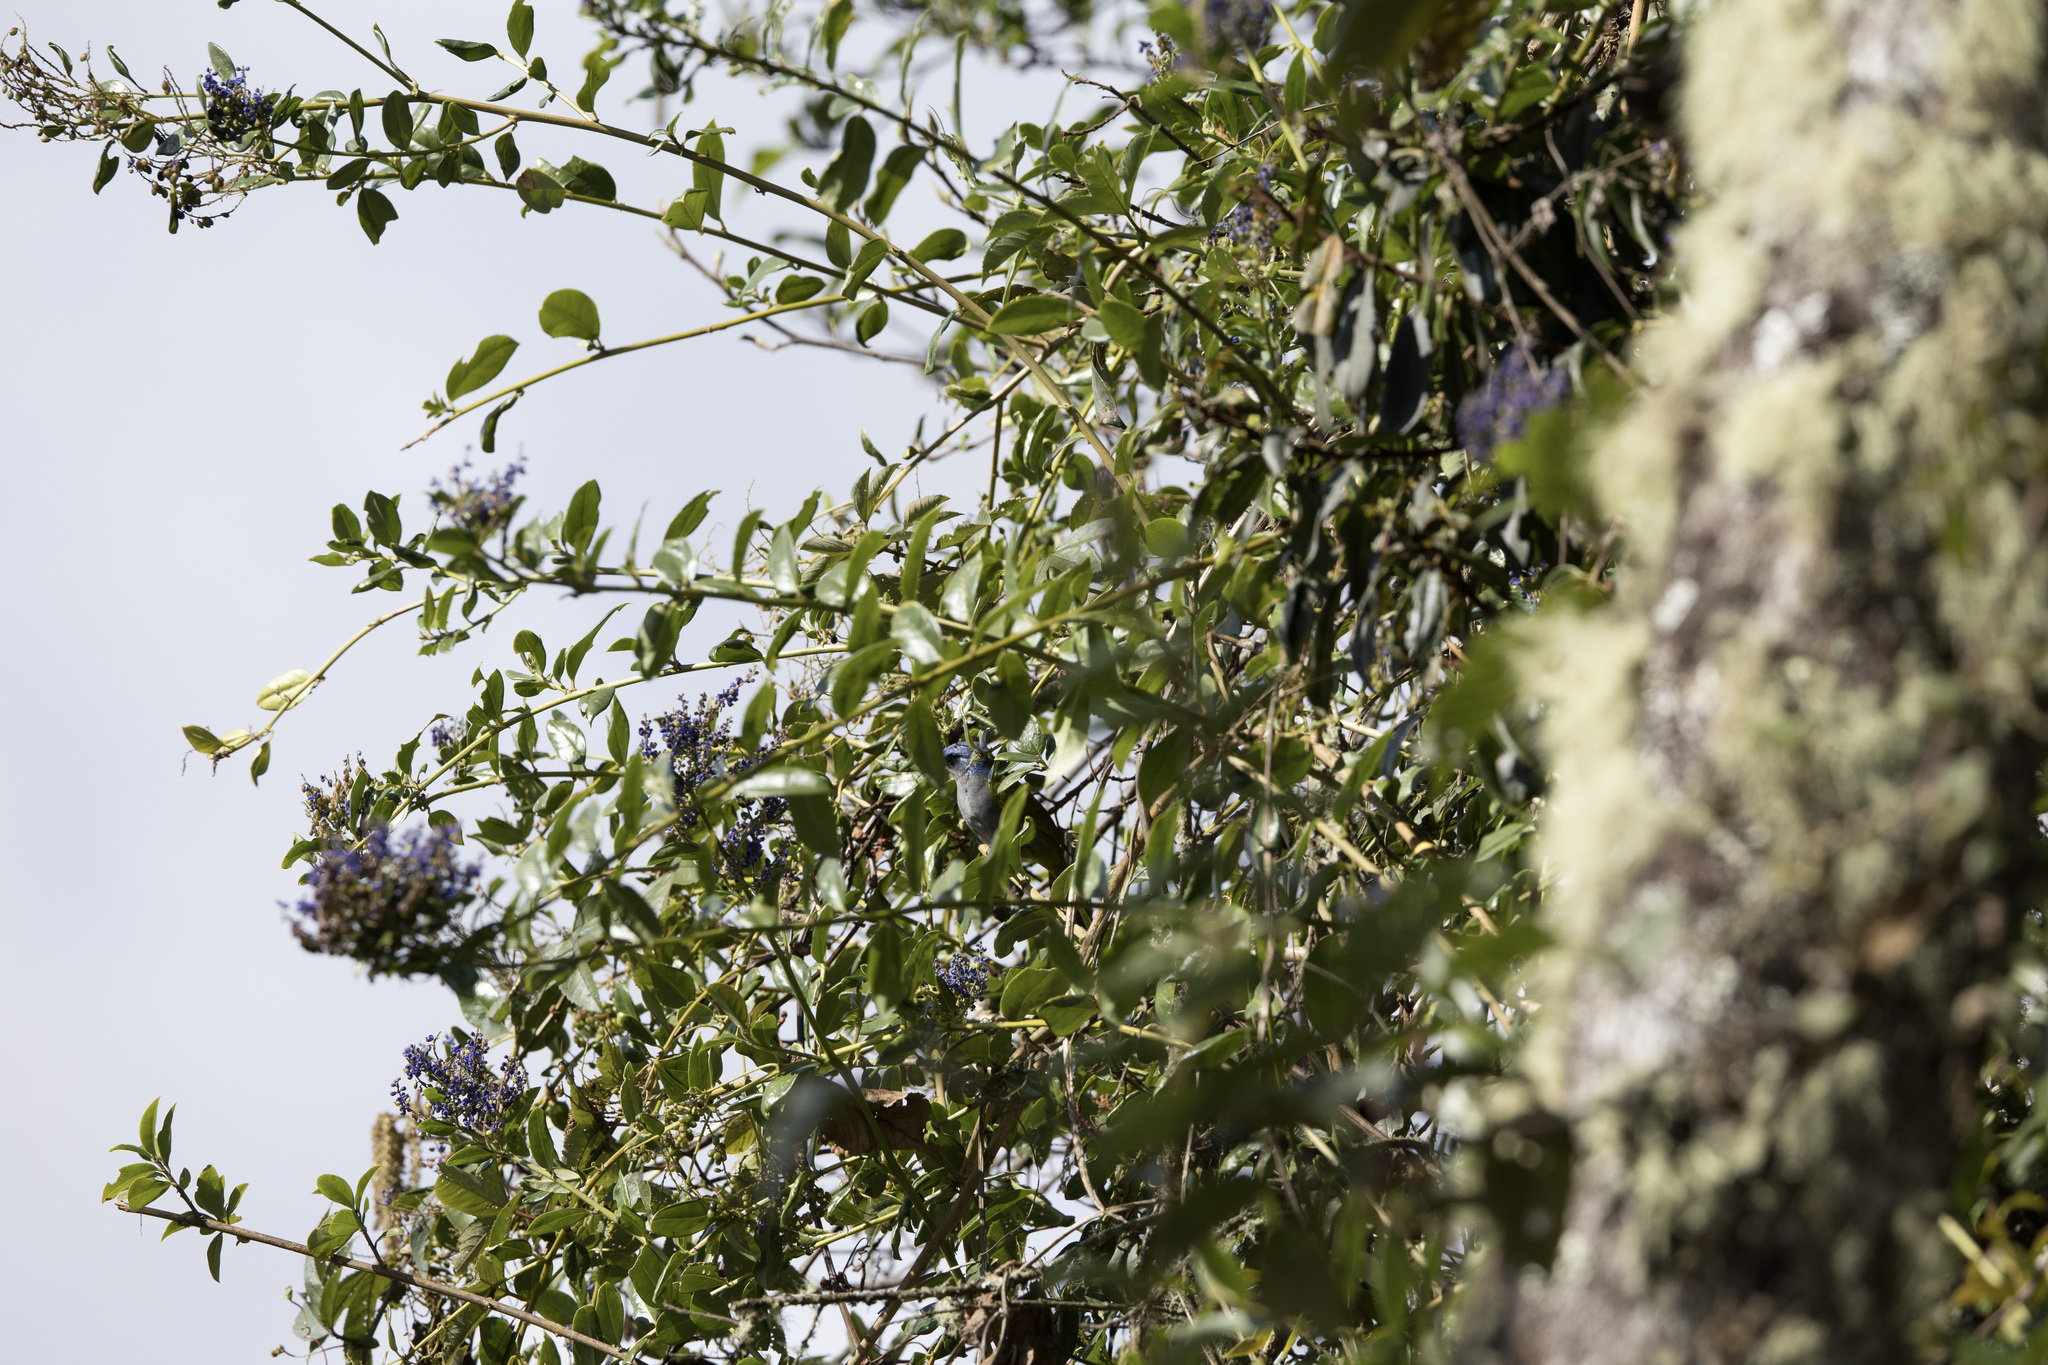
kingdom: Animalia
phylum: Chordata
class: Aves
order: Passeriformes
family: Thraupidae
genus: Sporathraupis
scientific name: Sporathraupis cyanocephala
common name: Blue-capped tanager
